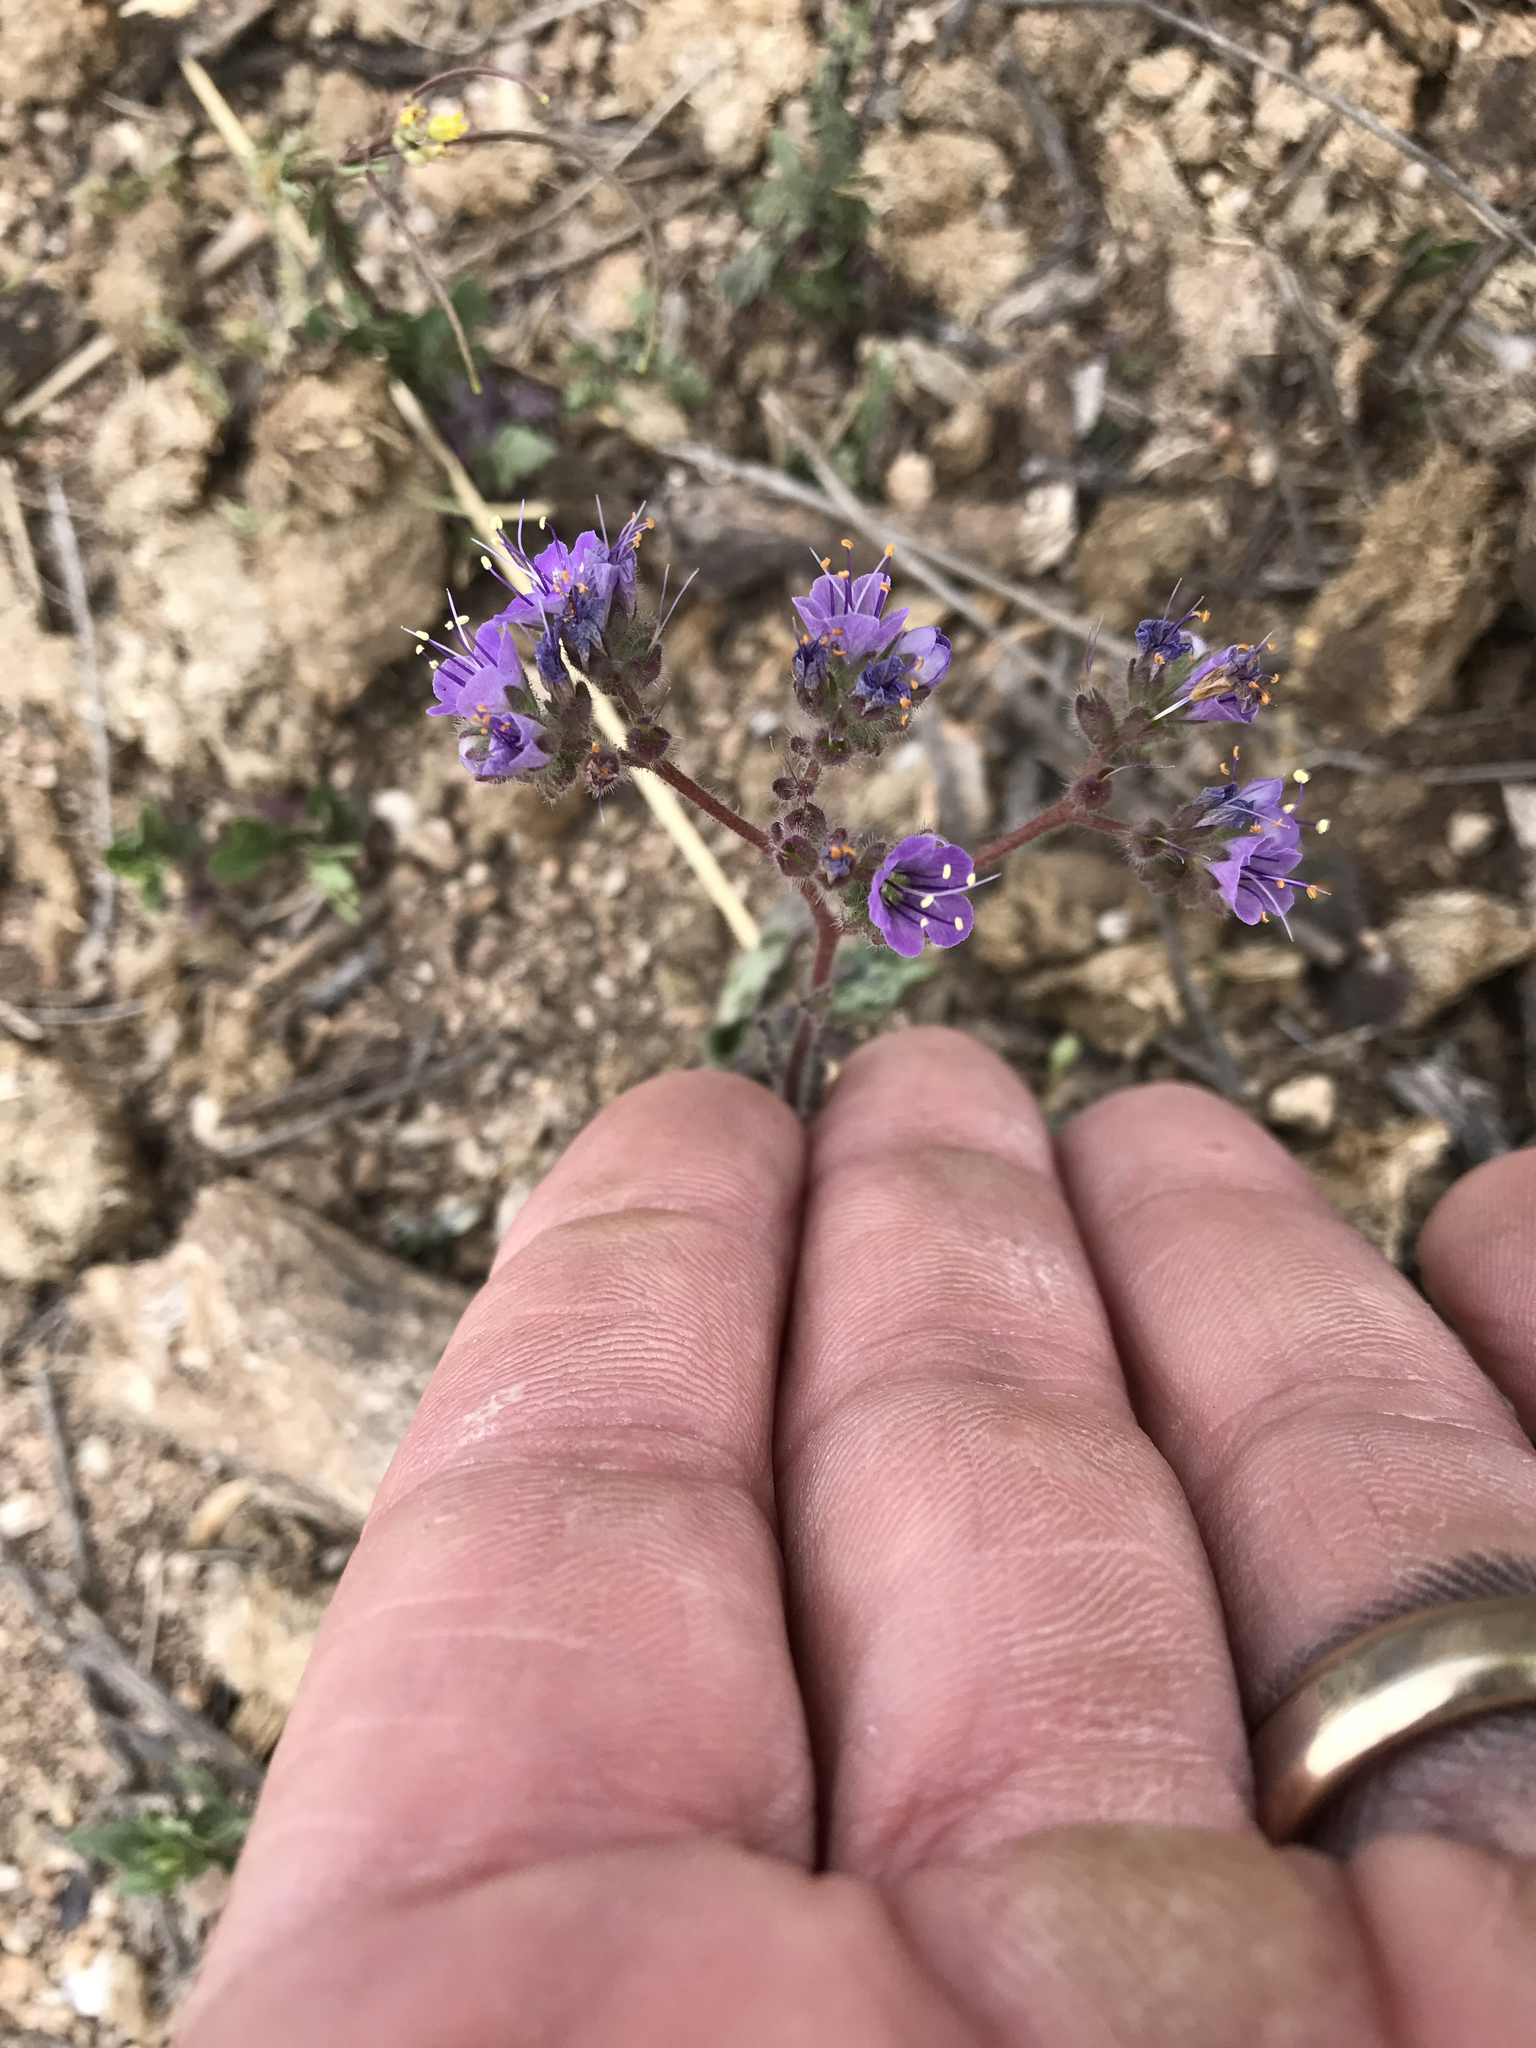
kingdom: Plantae
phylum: Tracheophyta
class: Magnoliopsida
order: Boraginales
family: Hydrophyllaceae
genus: Phacelia
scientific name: Phacelia crenulata
